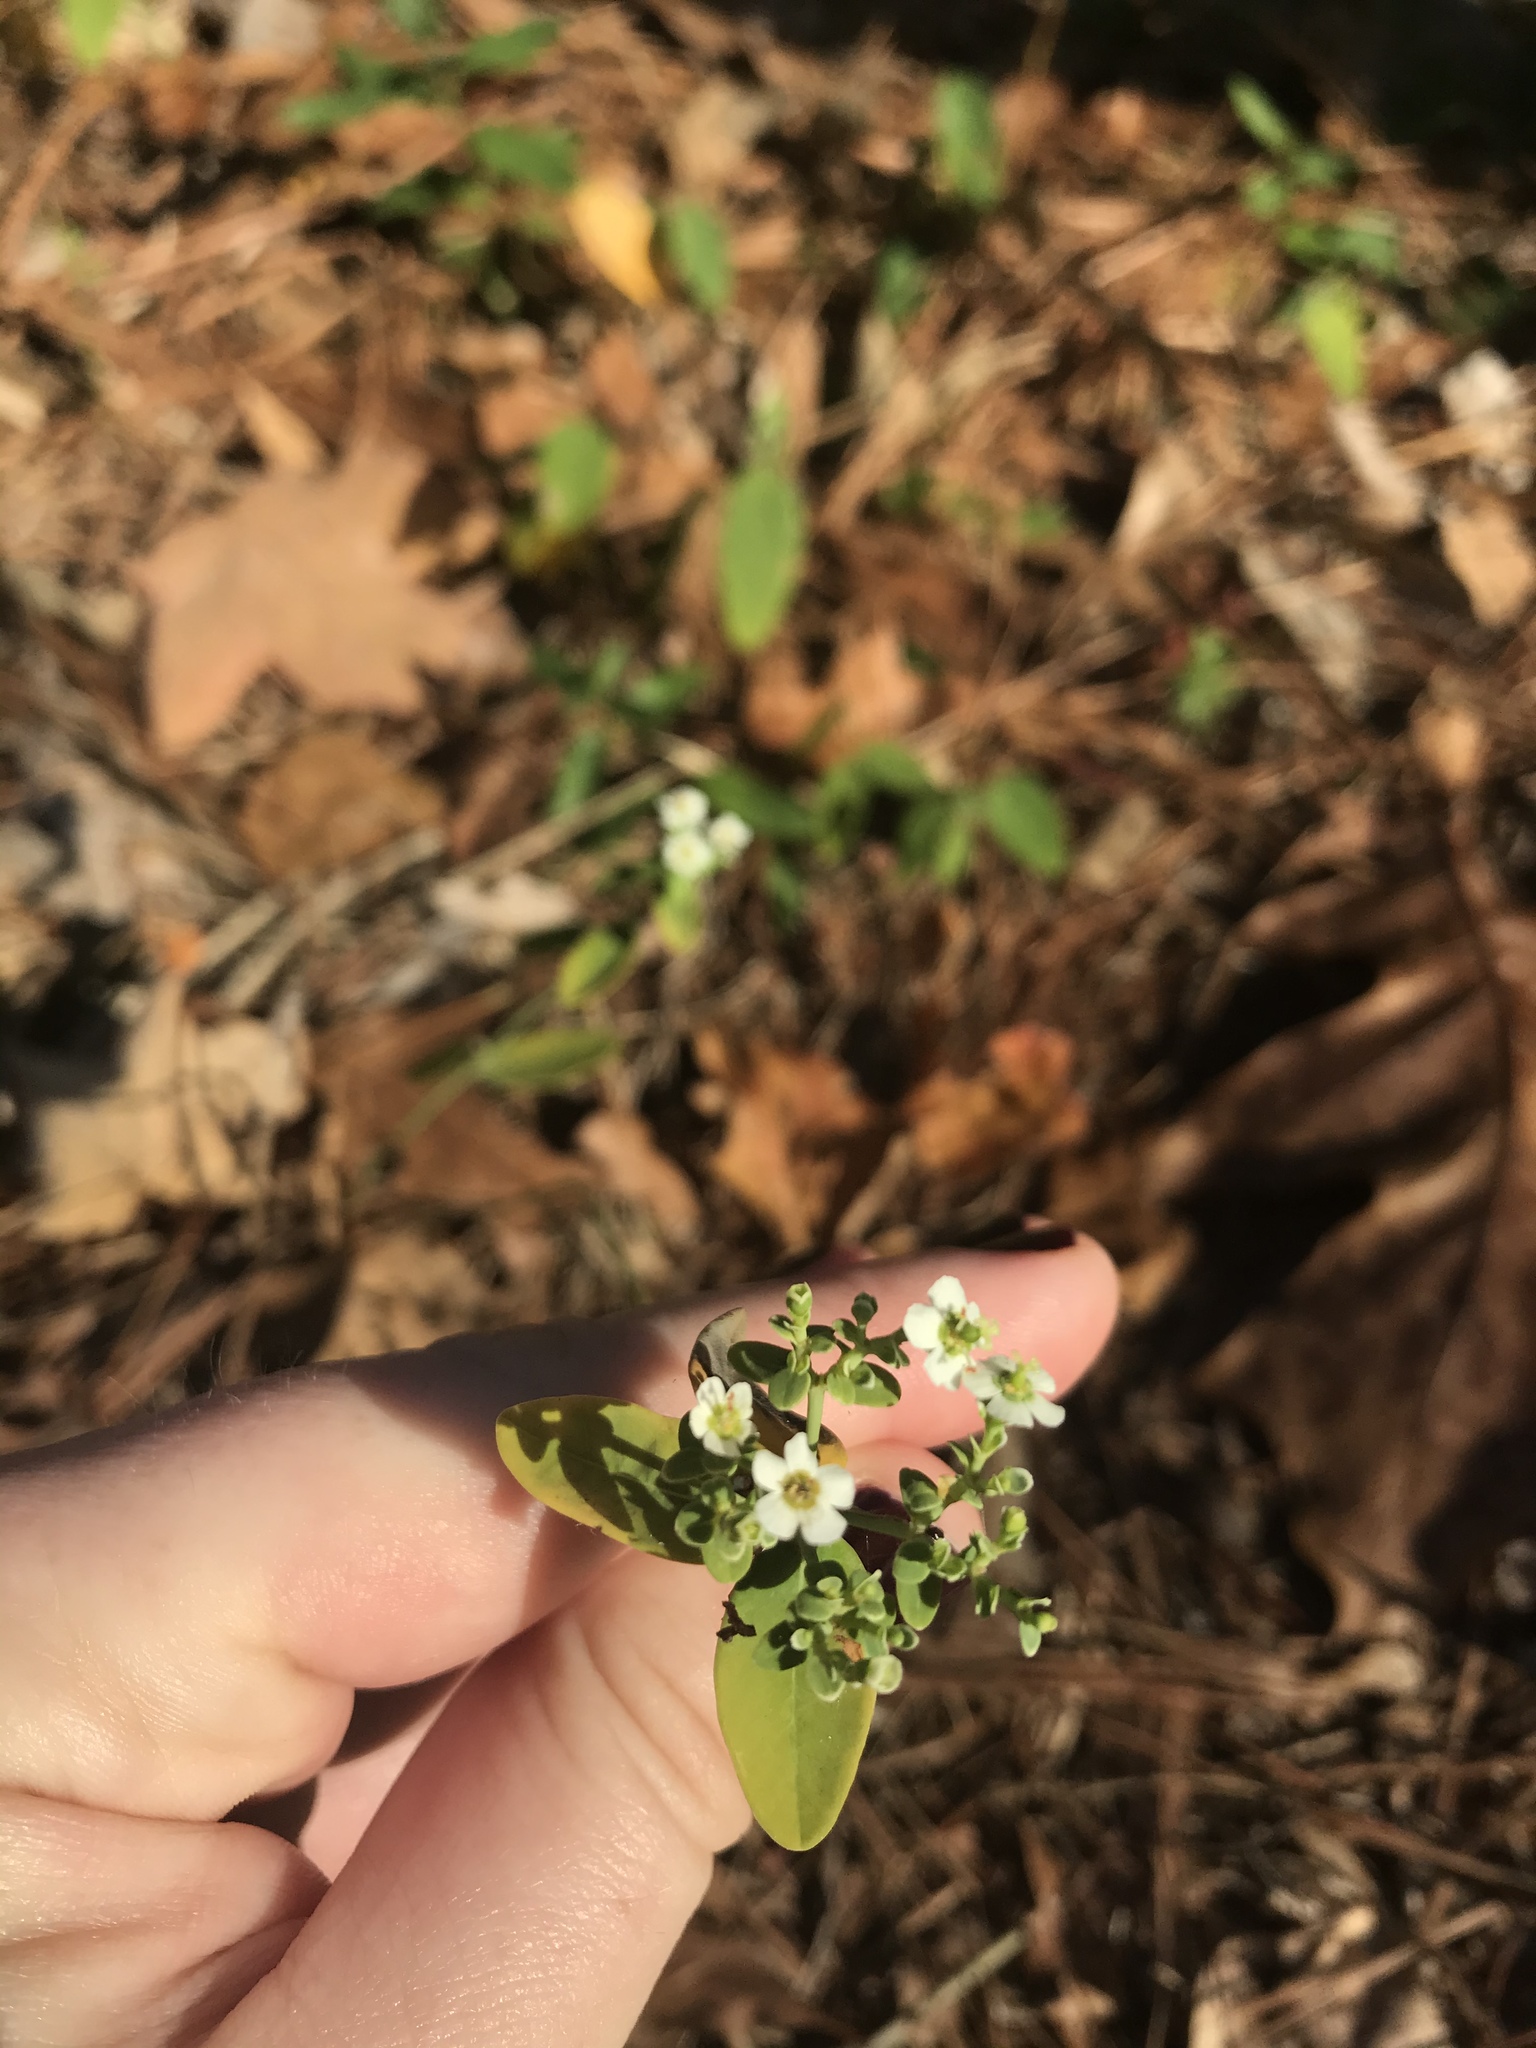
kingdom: Plantae
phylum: Tracheophyta
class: Magnoliopsida
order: Malpighiales
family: Euphorbiaceae
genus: Euphorbia
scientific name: Euphorbia corollata
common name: Flowering spurge
